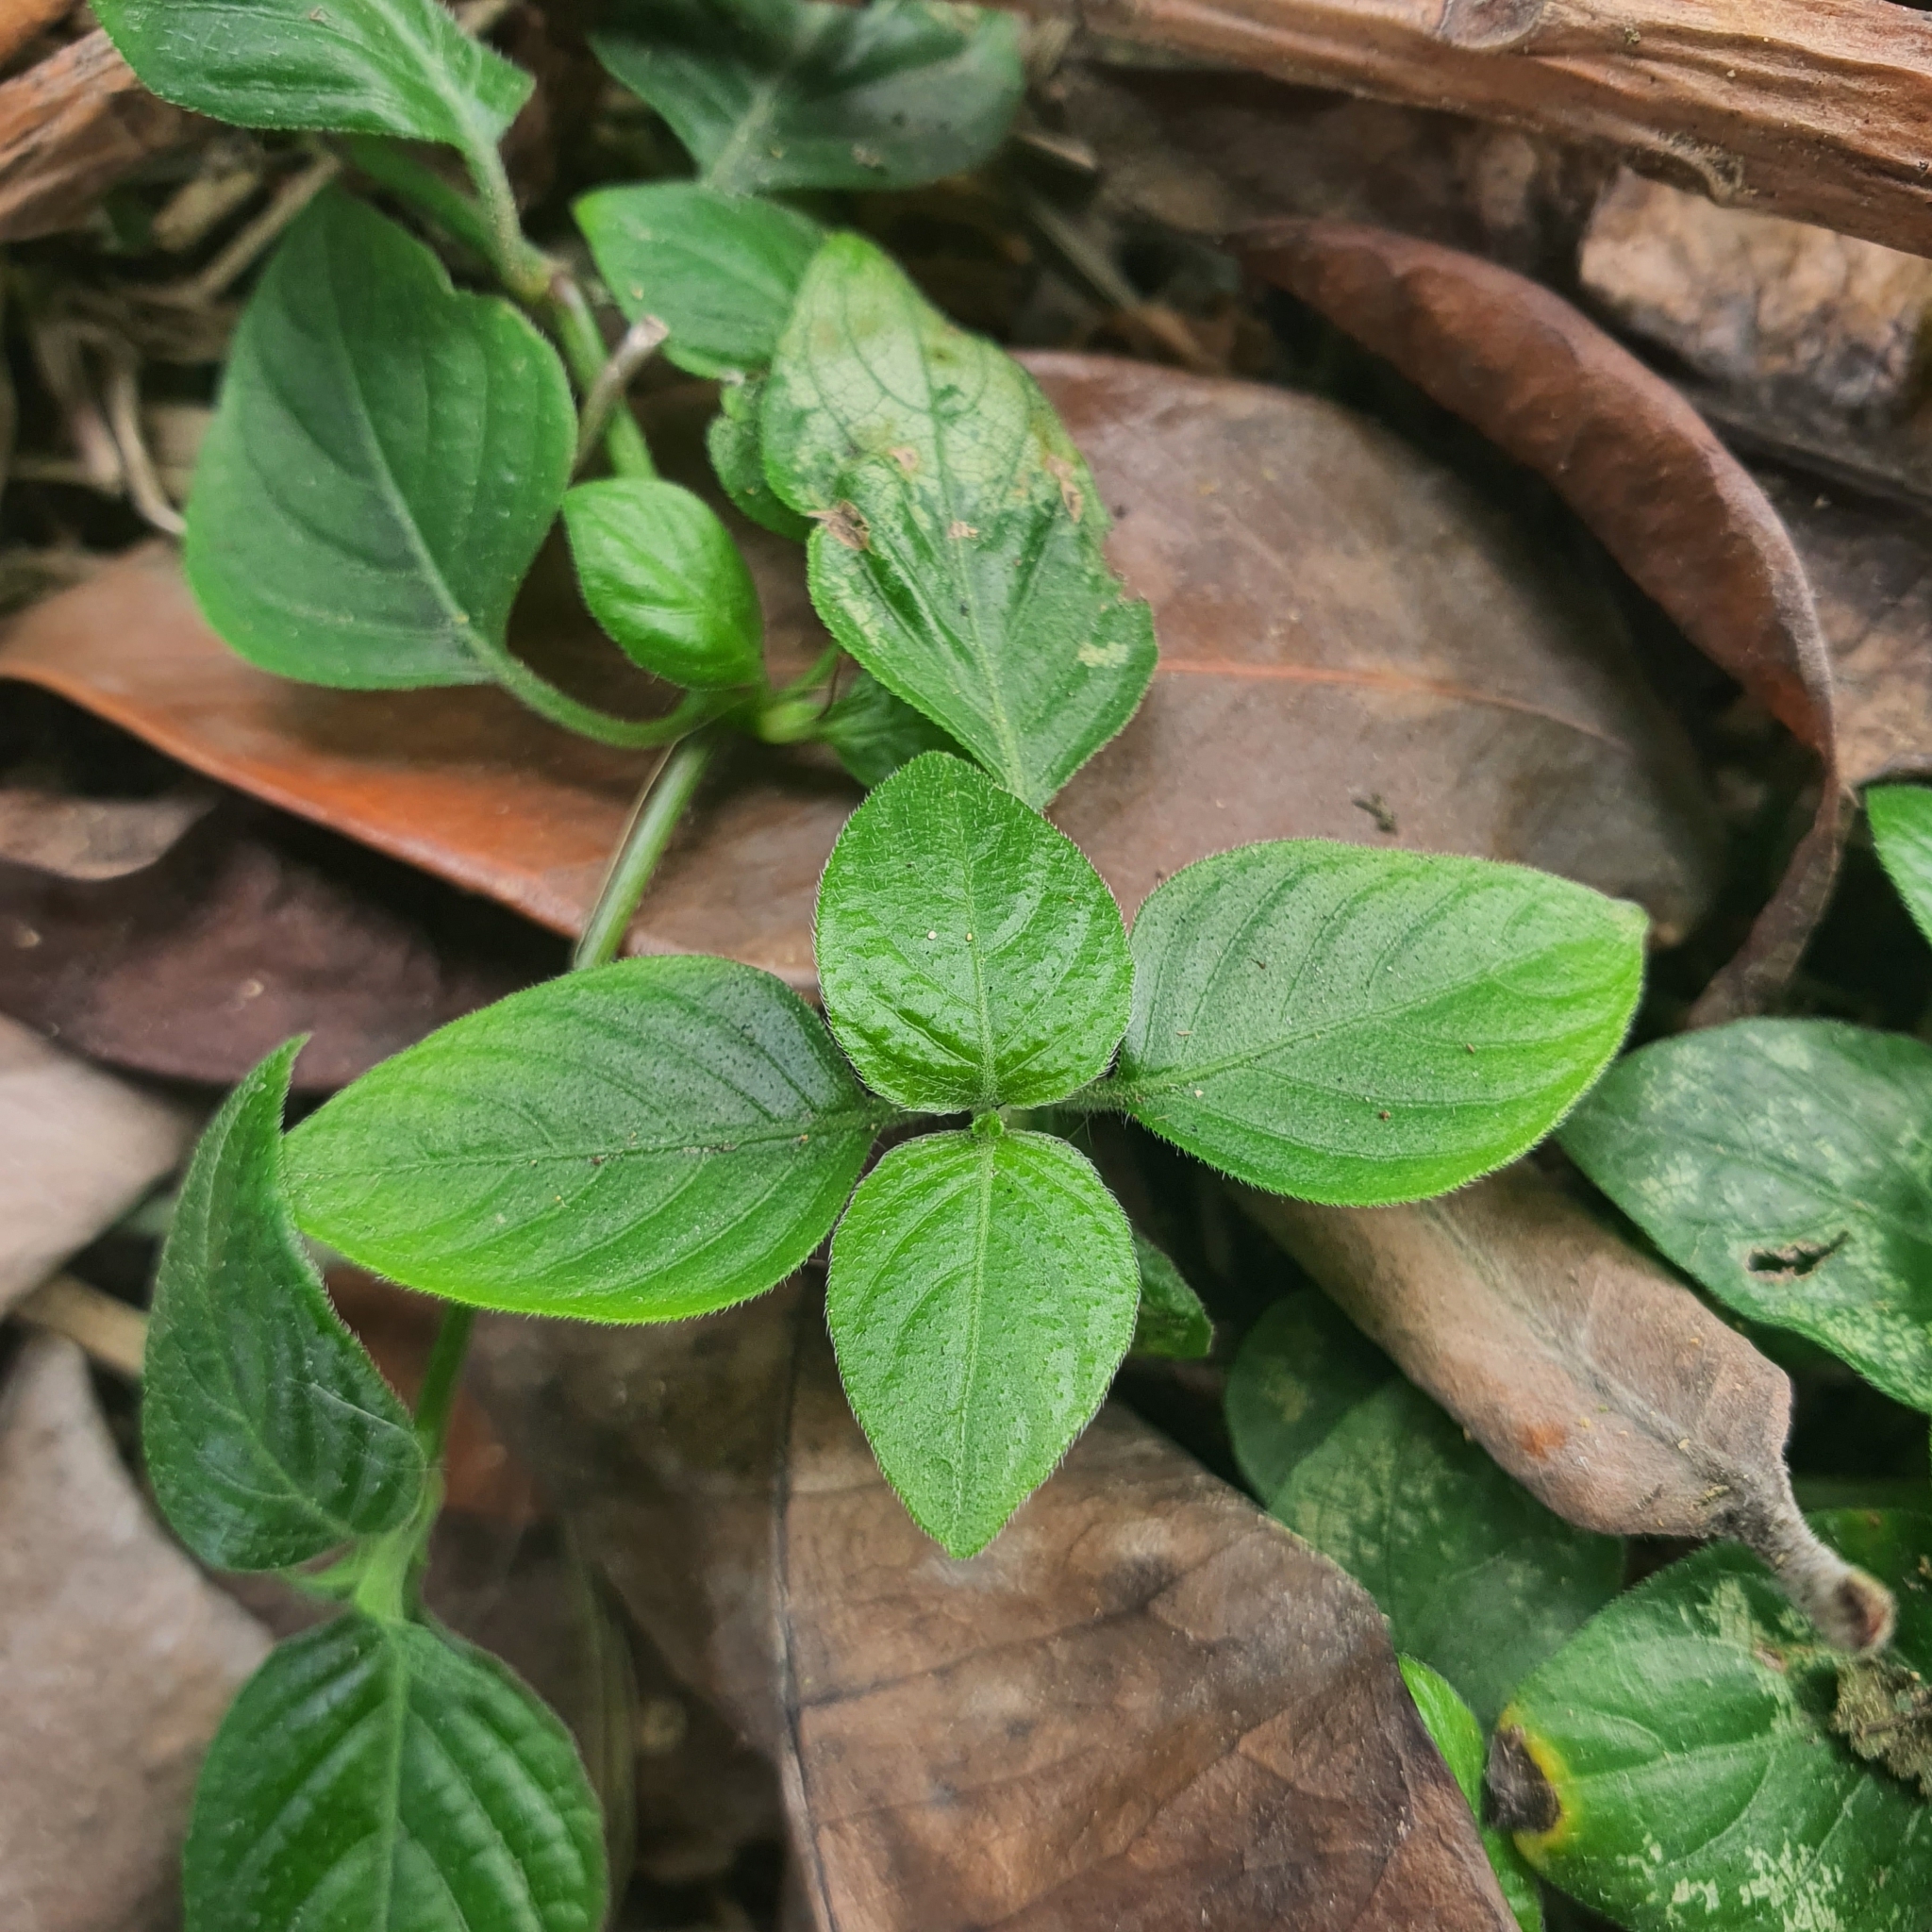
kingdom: Plantae
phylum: Tracheophyta
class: Magnoliopsida
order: Lamiales
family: Acanthaceae
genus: Ruellia
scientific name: Ruellia prostrata
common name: Prostrate wild petunia
